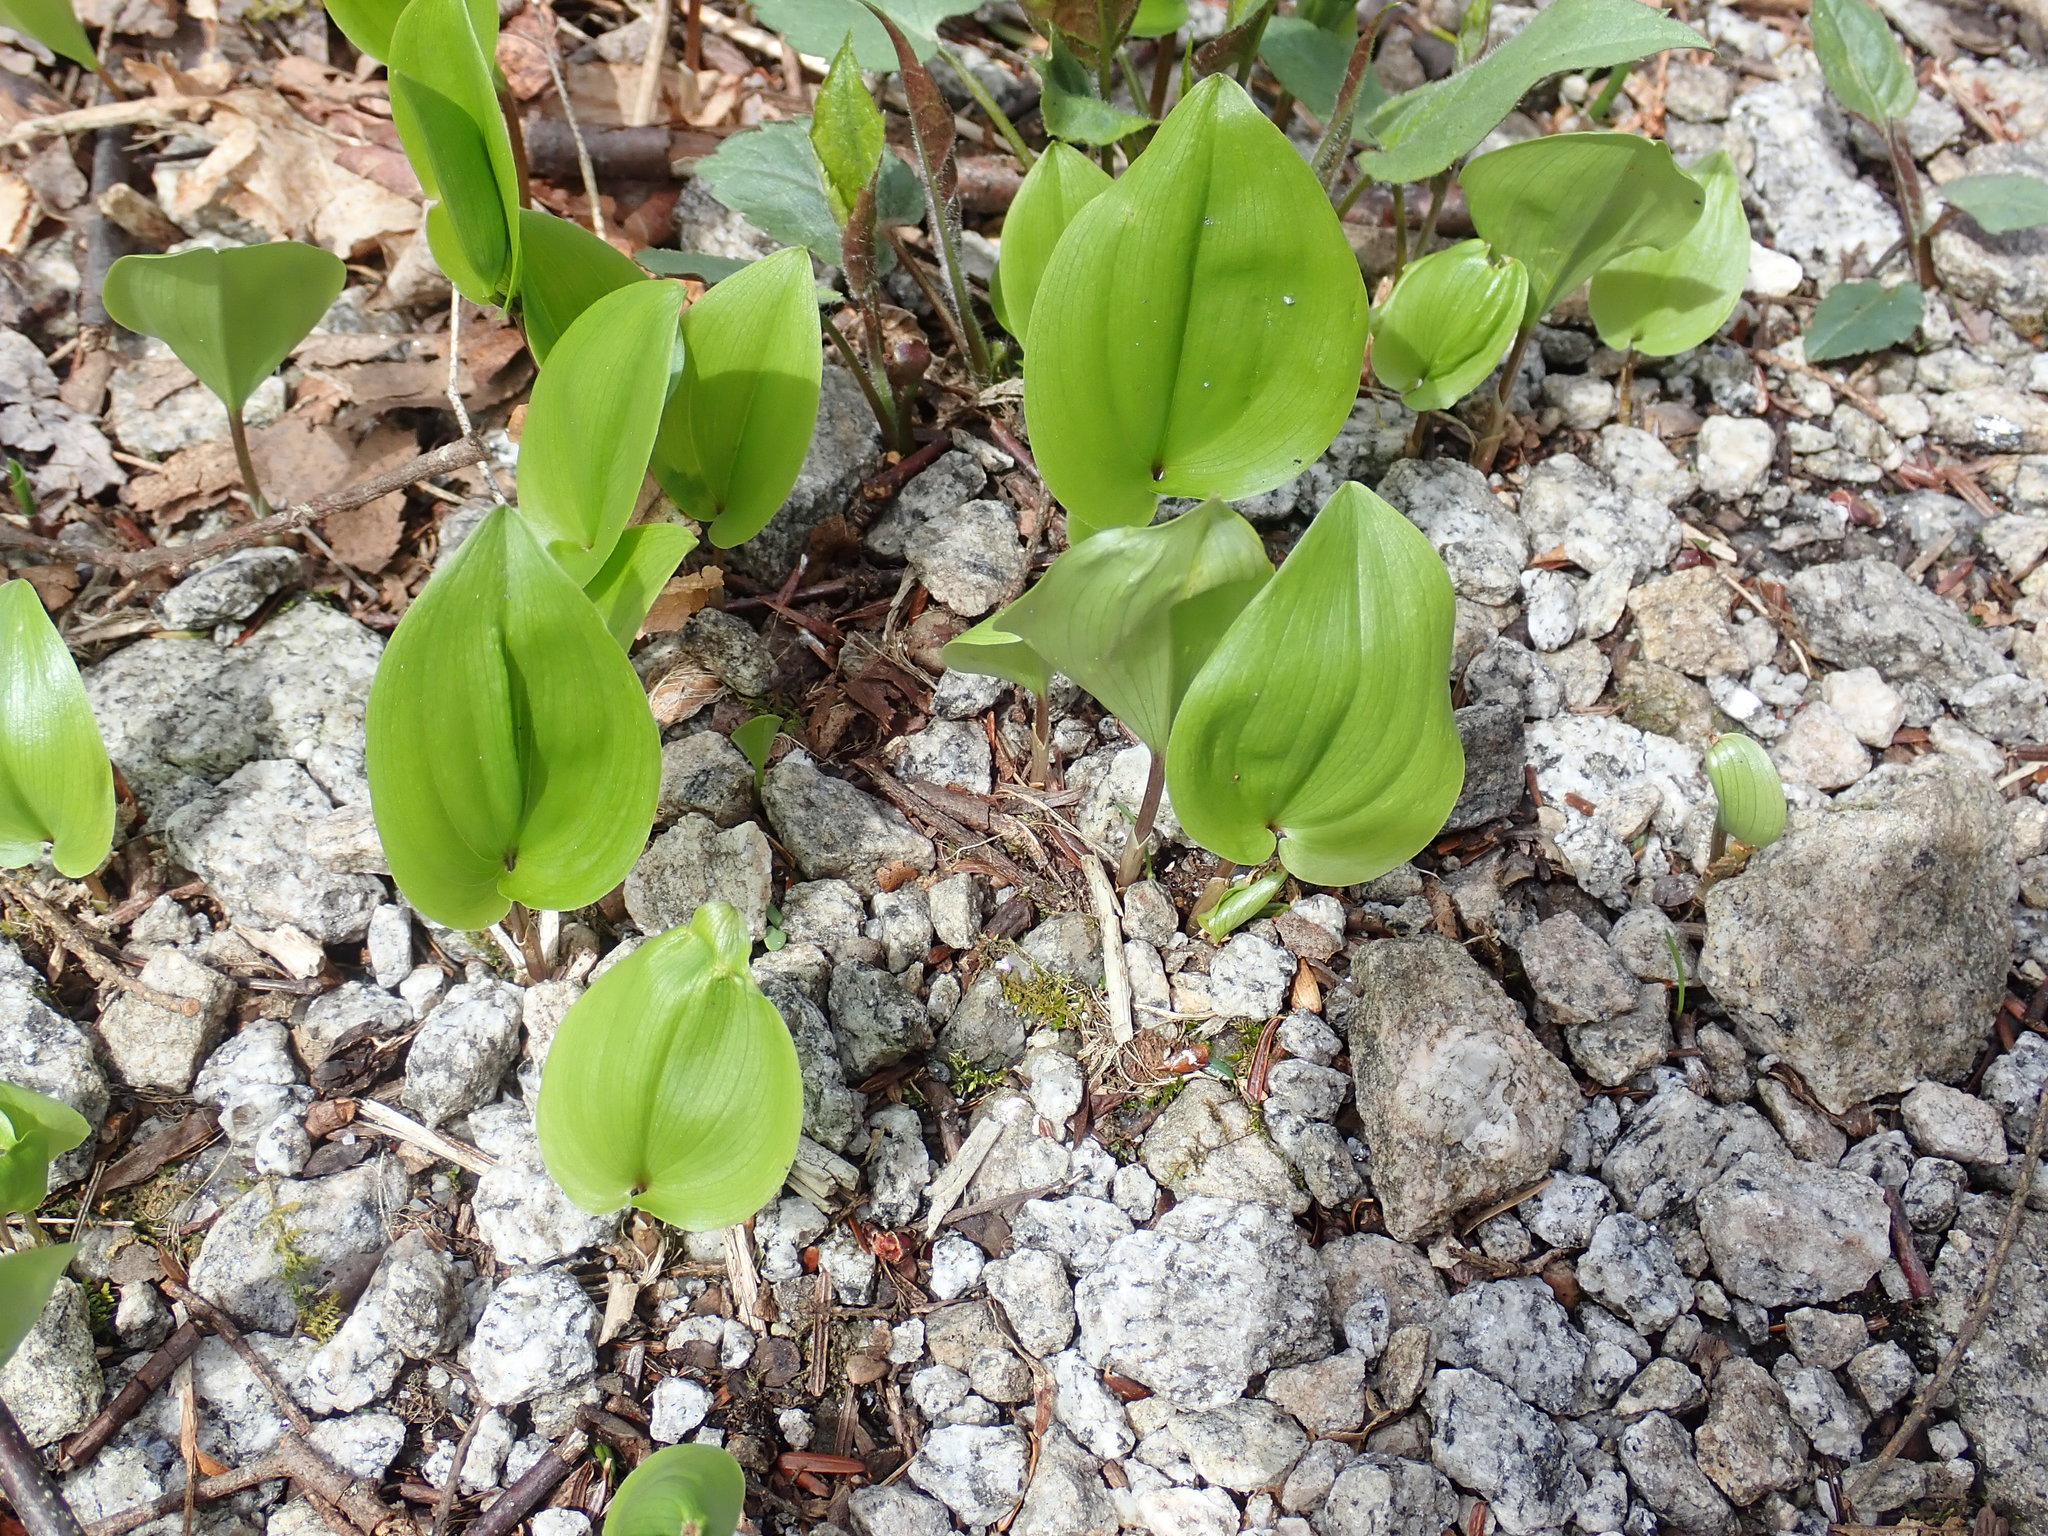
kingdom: Plantae
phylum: Tracheophyta
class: Liliopsida
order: Asparagales
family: Asparagaceae
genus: Maianthemum
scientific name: Maianthemum canadense
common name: False lily-of-the-valley
